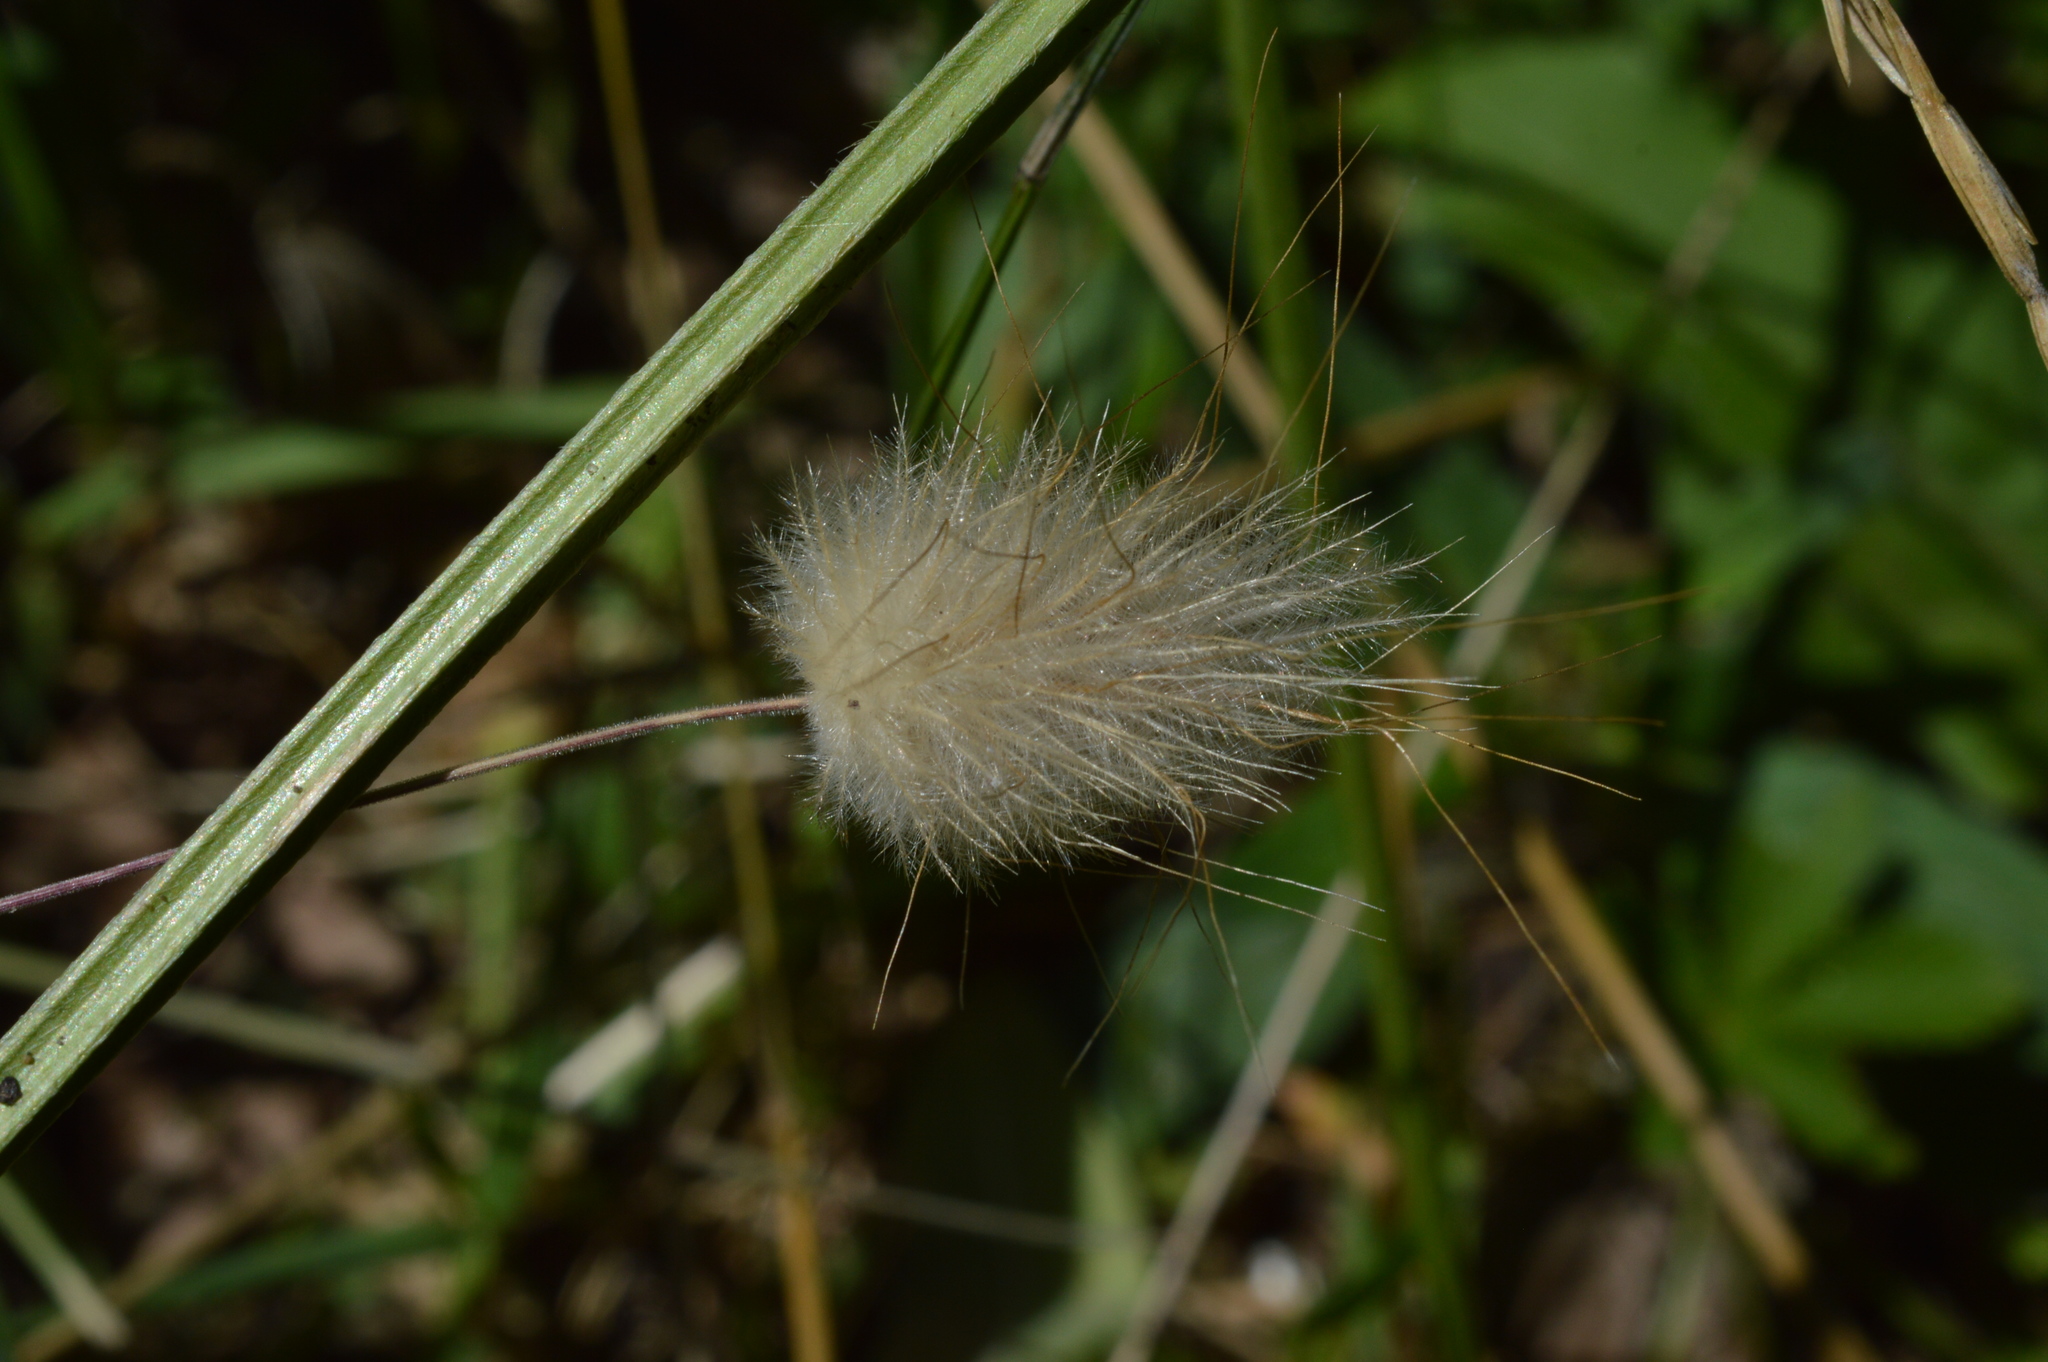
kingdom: Plantae
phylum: Tracheophyta
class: Liliopsida
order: Poales
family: Poaceae
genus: Lagurus
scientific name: Lagurus ovatus
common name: Hare's-tail
